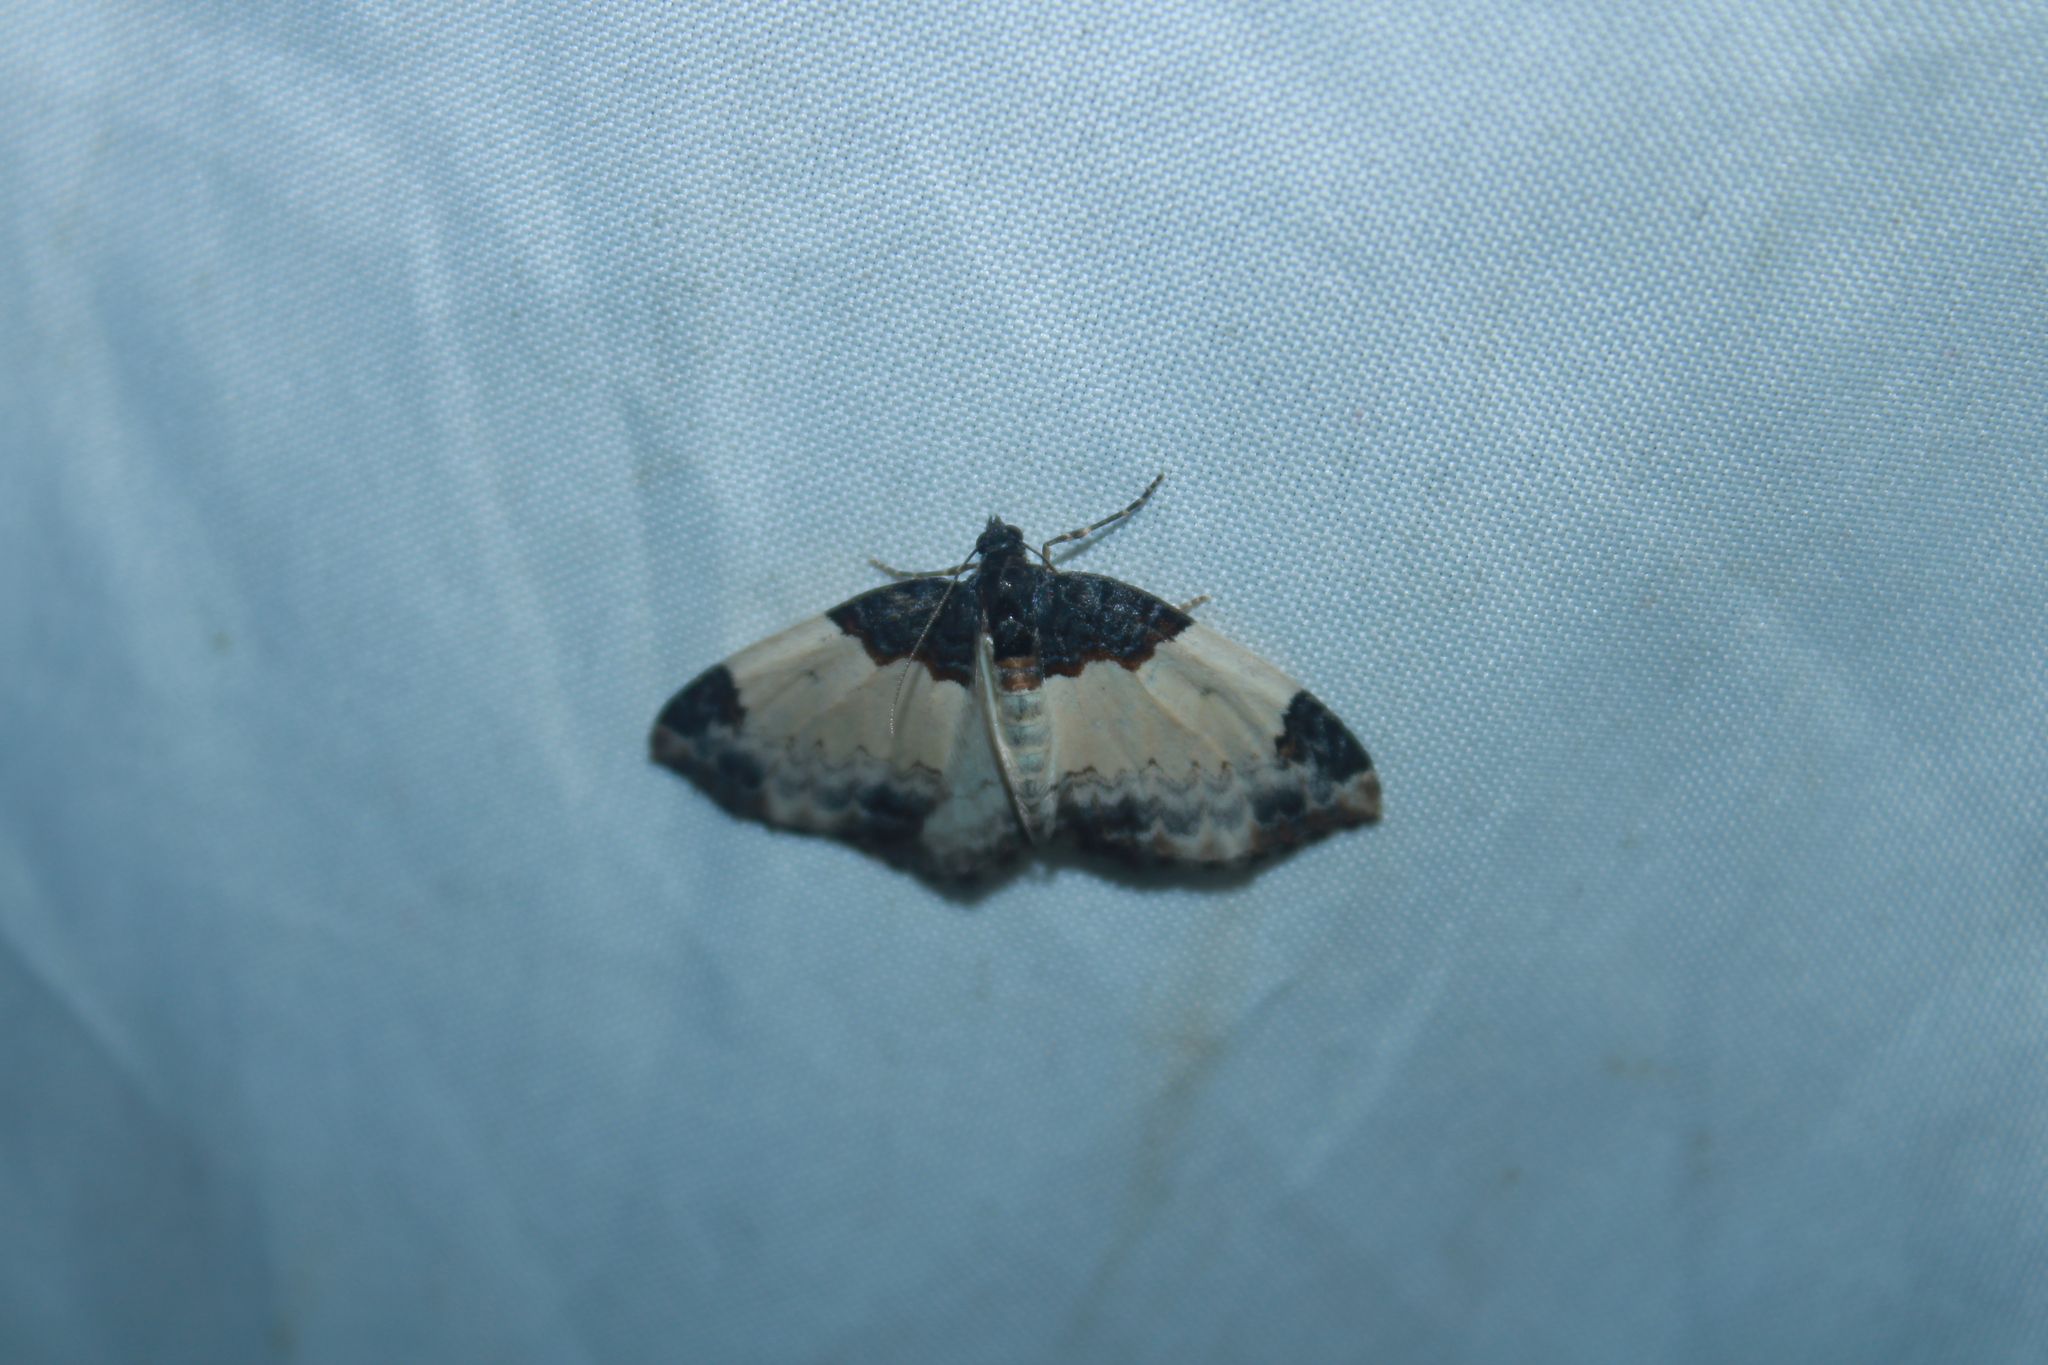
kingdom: Animalia
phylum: Arthropoda
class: Insecta
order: Lepidoptera
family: Geometridae
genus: Mesoleuca
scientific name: Mesoleuca ruficillata
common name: White-ribboned carpet moth
